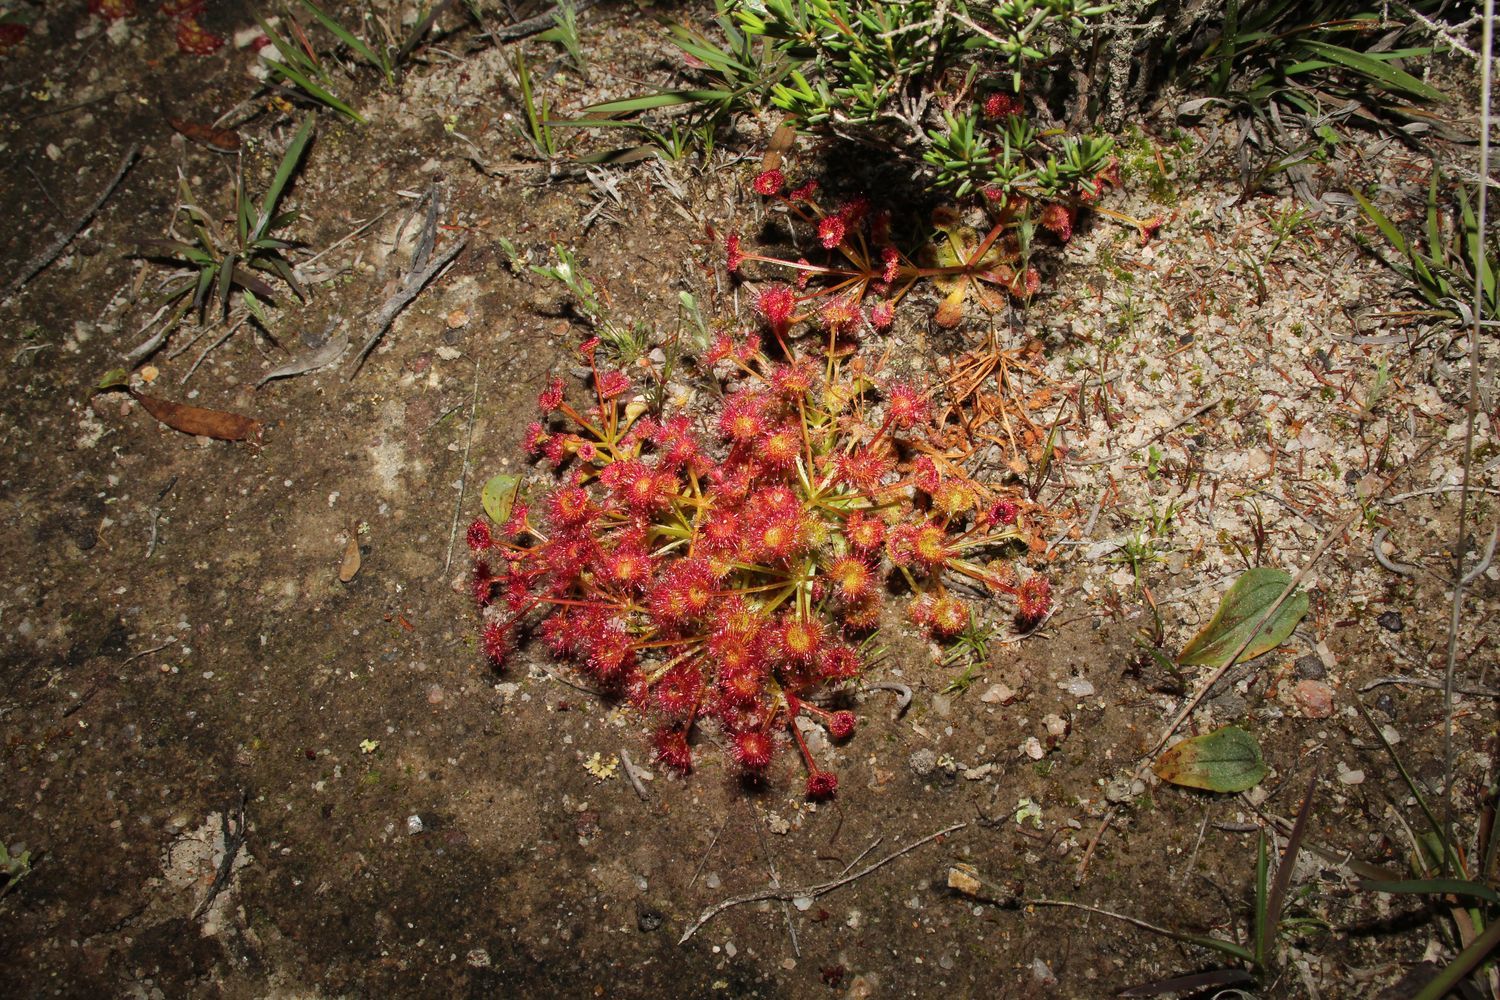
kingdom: Plantae
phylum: Tracheophyta
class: Magnoliopsida
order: Caryophyllales
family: Droseraceae
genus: Drosera
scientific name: Drosera stolonifera
